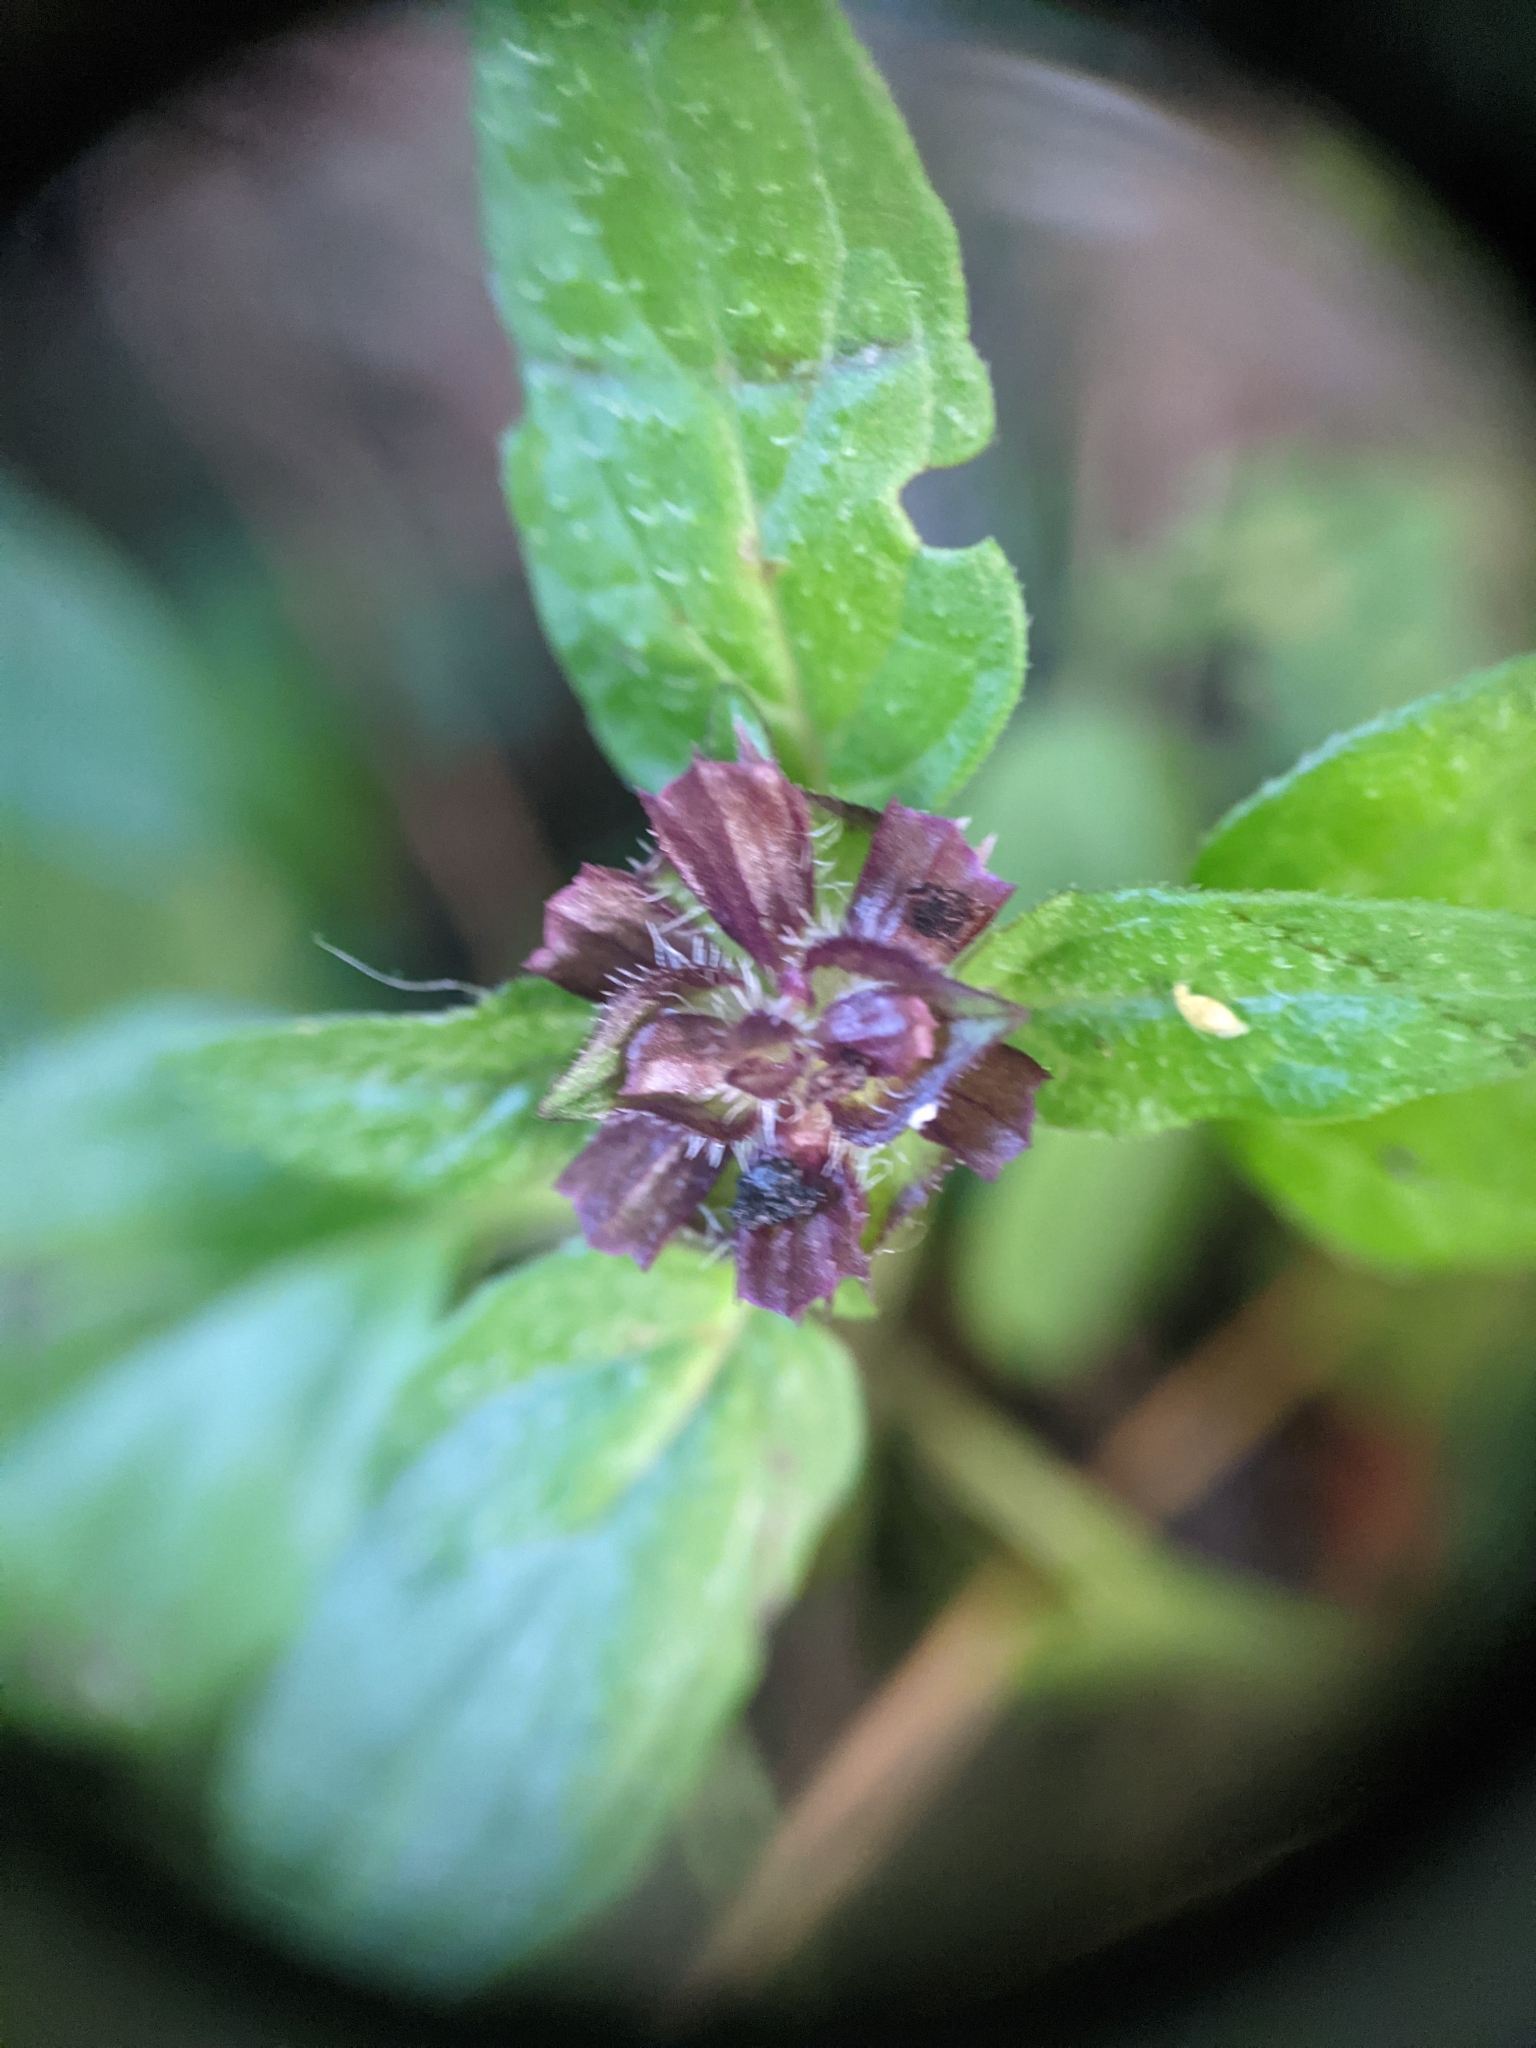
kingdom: Plantae
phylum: Tracheophyta
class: Magnoliopsida
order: Lamiales
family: Lamiaceae
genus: Prunella
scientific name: Prunella vulgaris
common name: Heal-all
